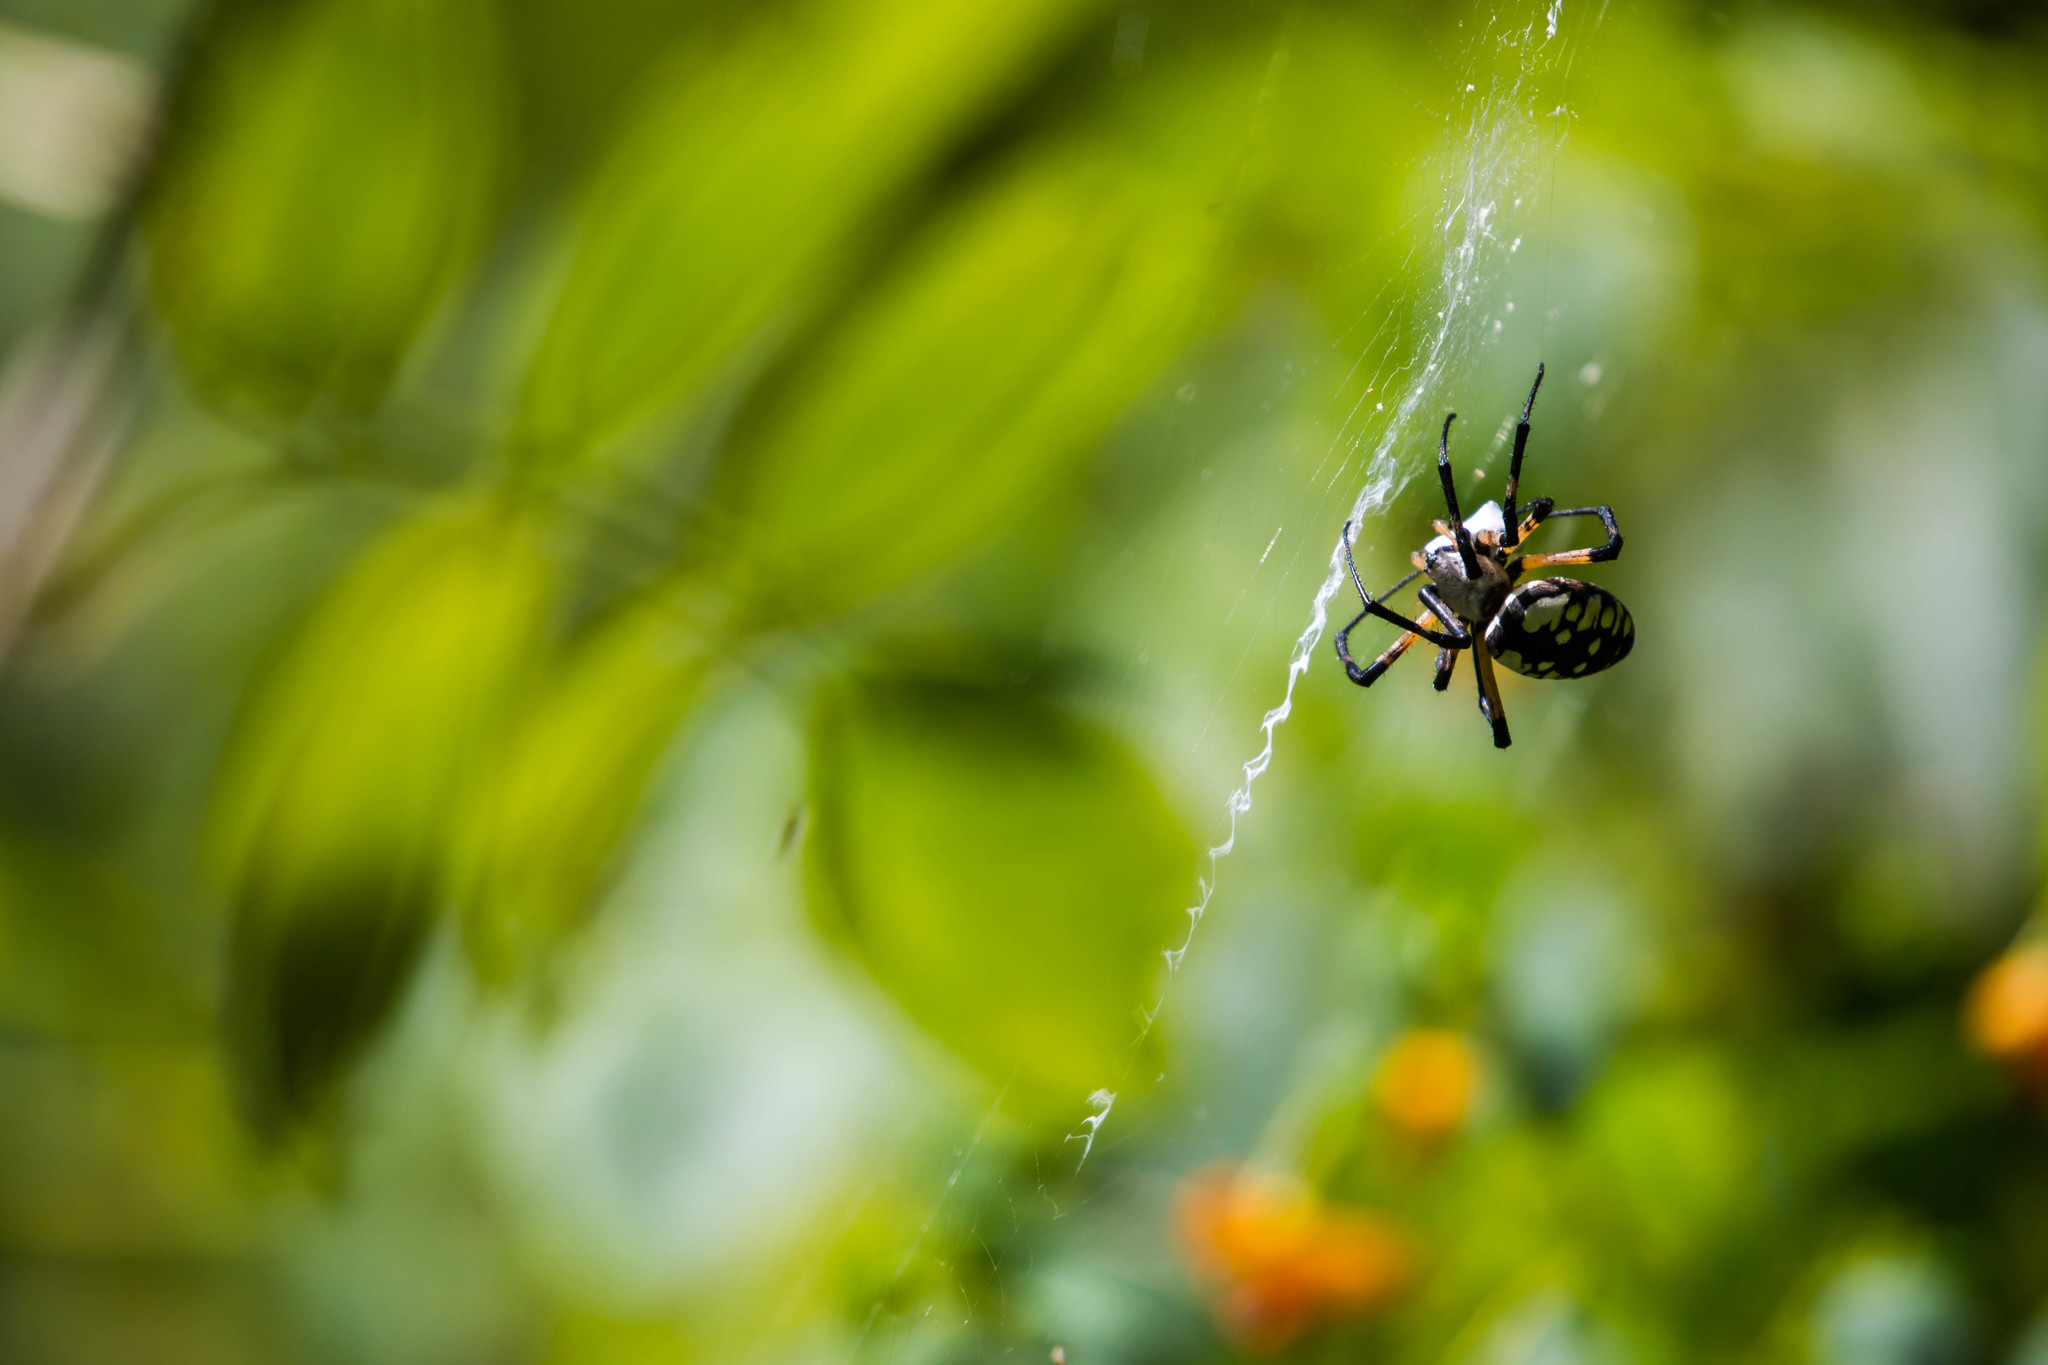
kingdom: Animalia
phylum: Arthropoda
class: Arachnida
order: Araneae
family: Araneidae
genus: Argiope
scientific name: Argiope aurantia
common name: Orb weavers
